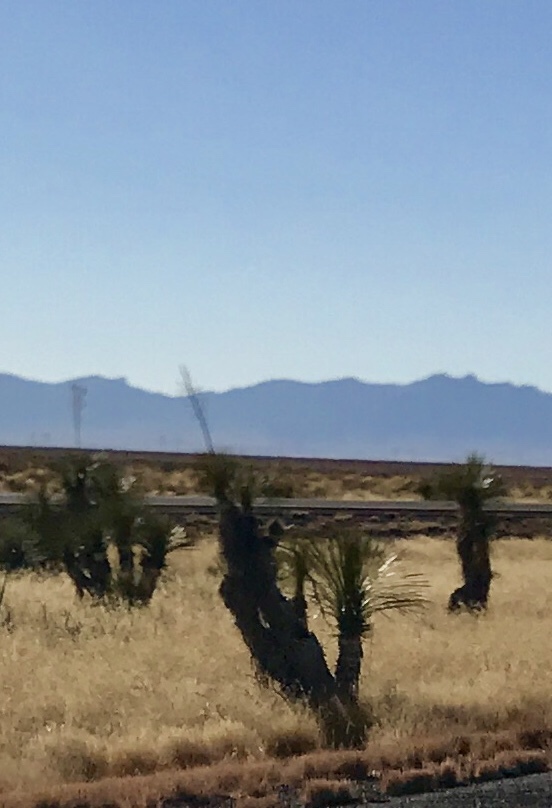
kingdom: Plantae
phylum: Tracheophyta
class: Liliopsida
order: Asparagales
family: Asparagaceae
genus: Yucca
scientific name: Yucca elata
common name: Palmella
